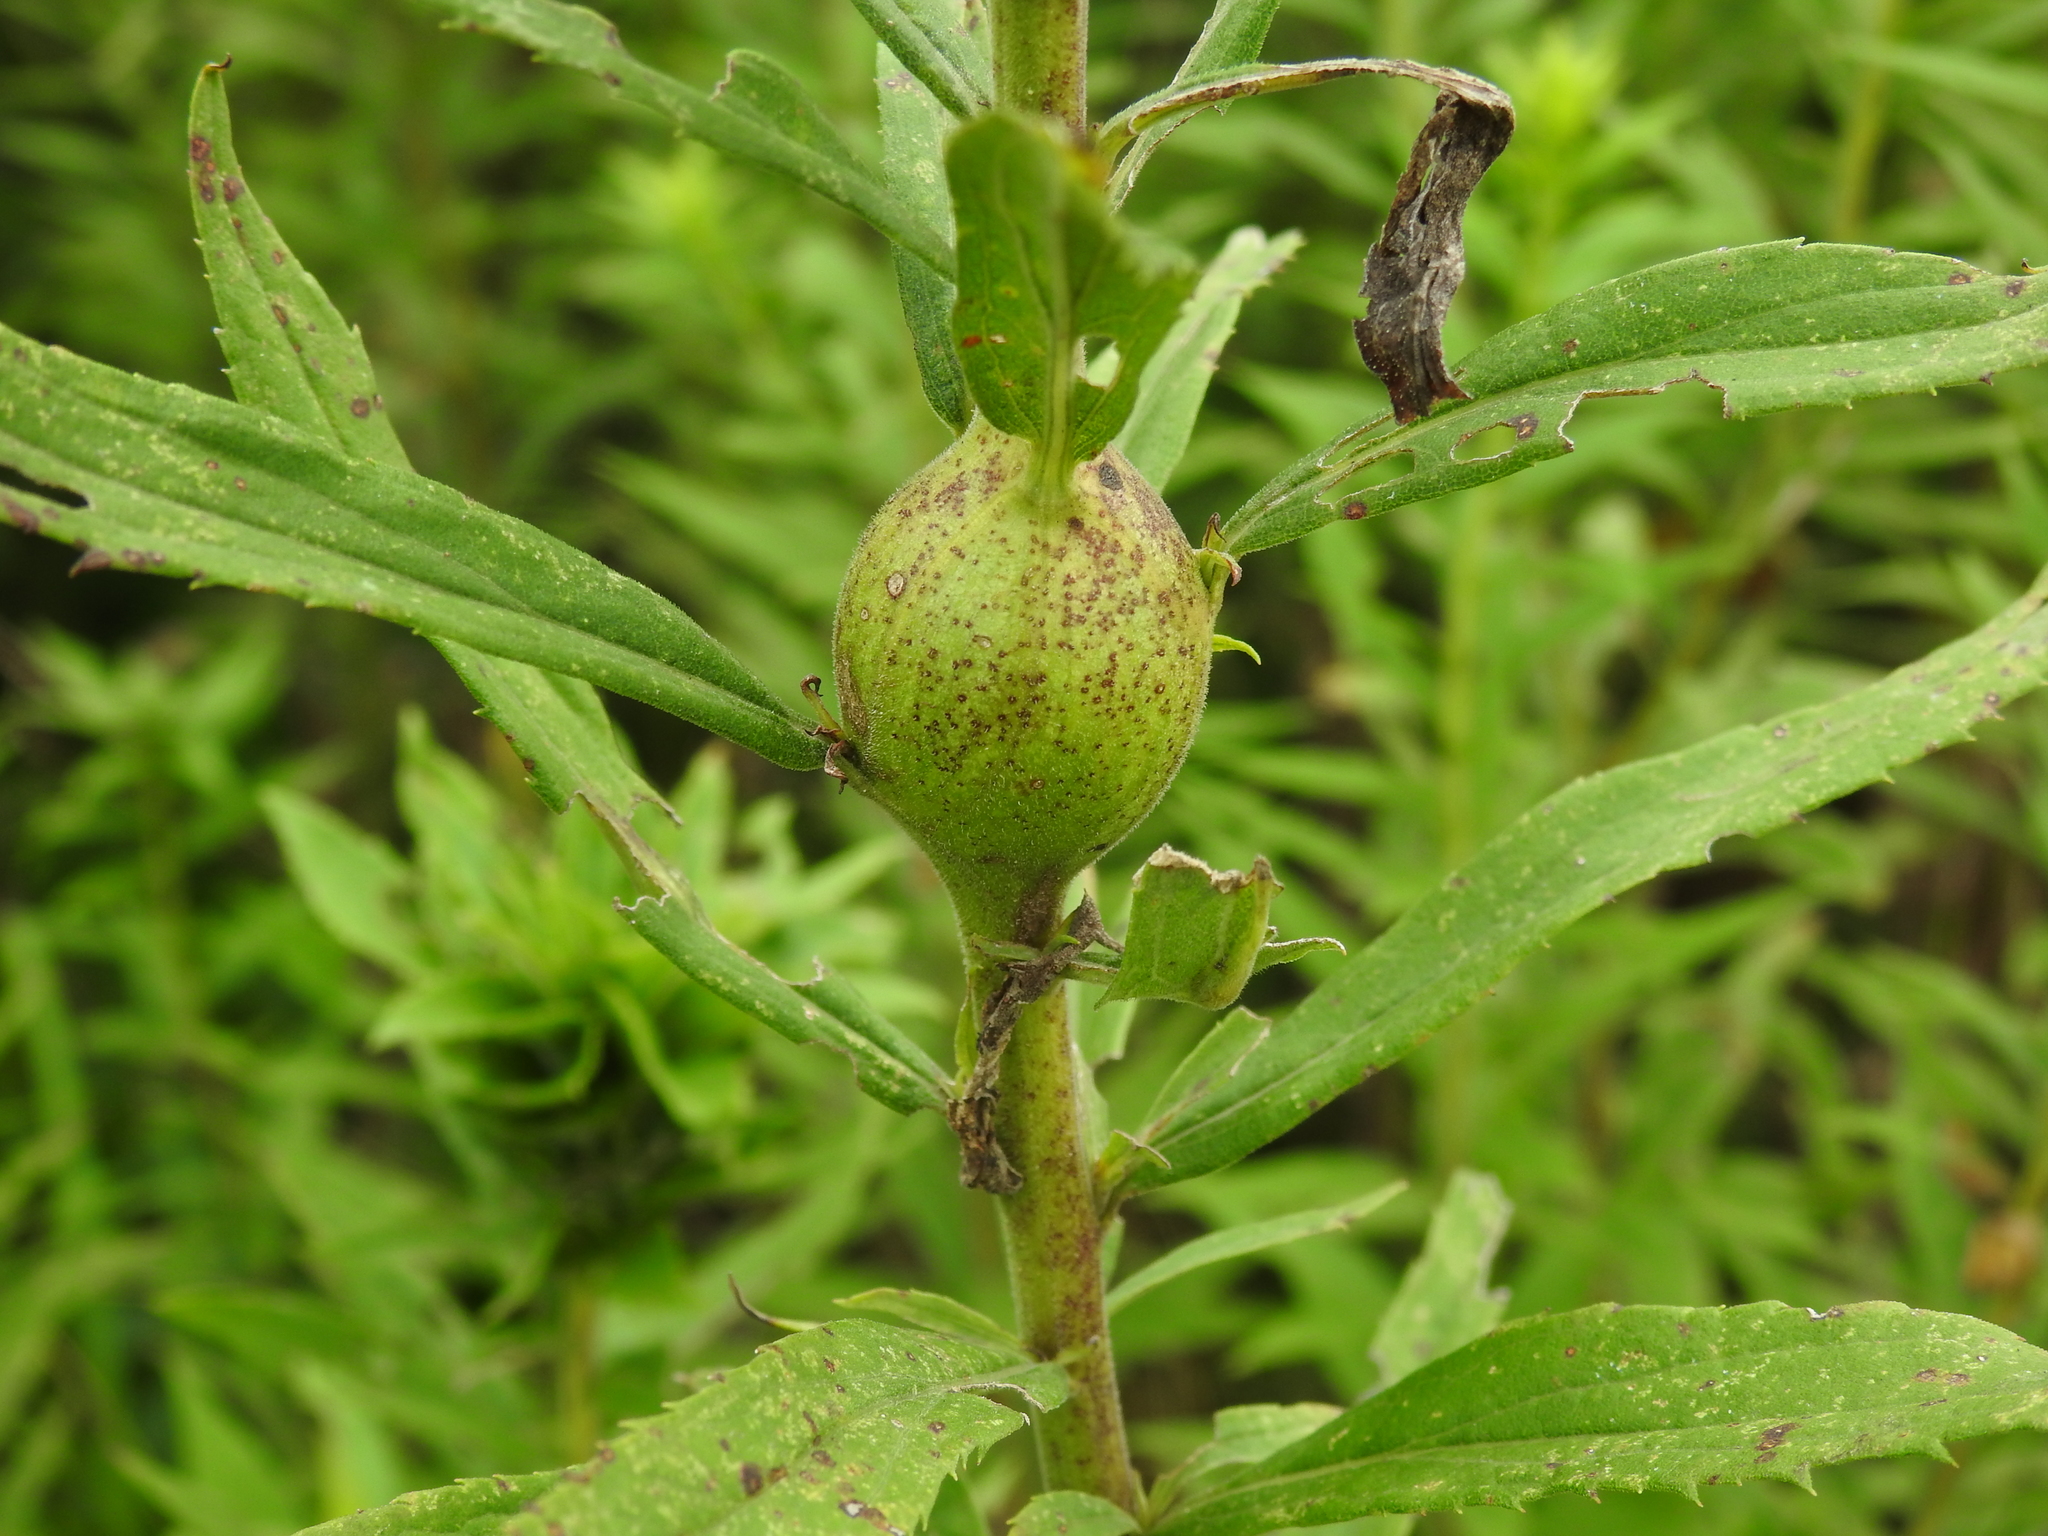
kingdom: Animalia
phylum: Arthropoda
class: Insecta
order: Diptera
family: Tephritidae
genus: Eurosta
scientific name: Eurosta solidaginis
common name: Goldenrod gall fly
